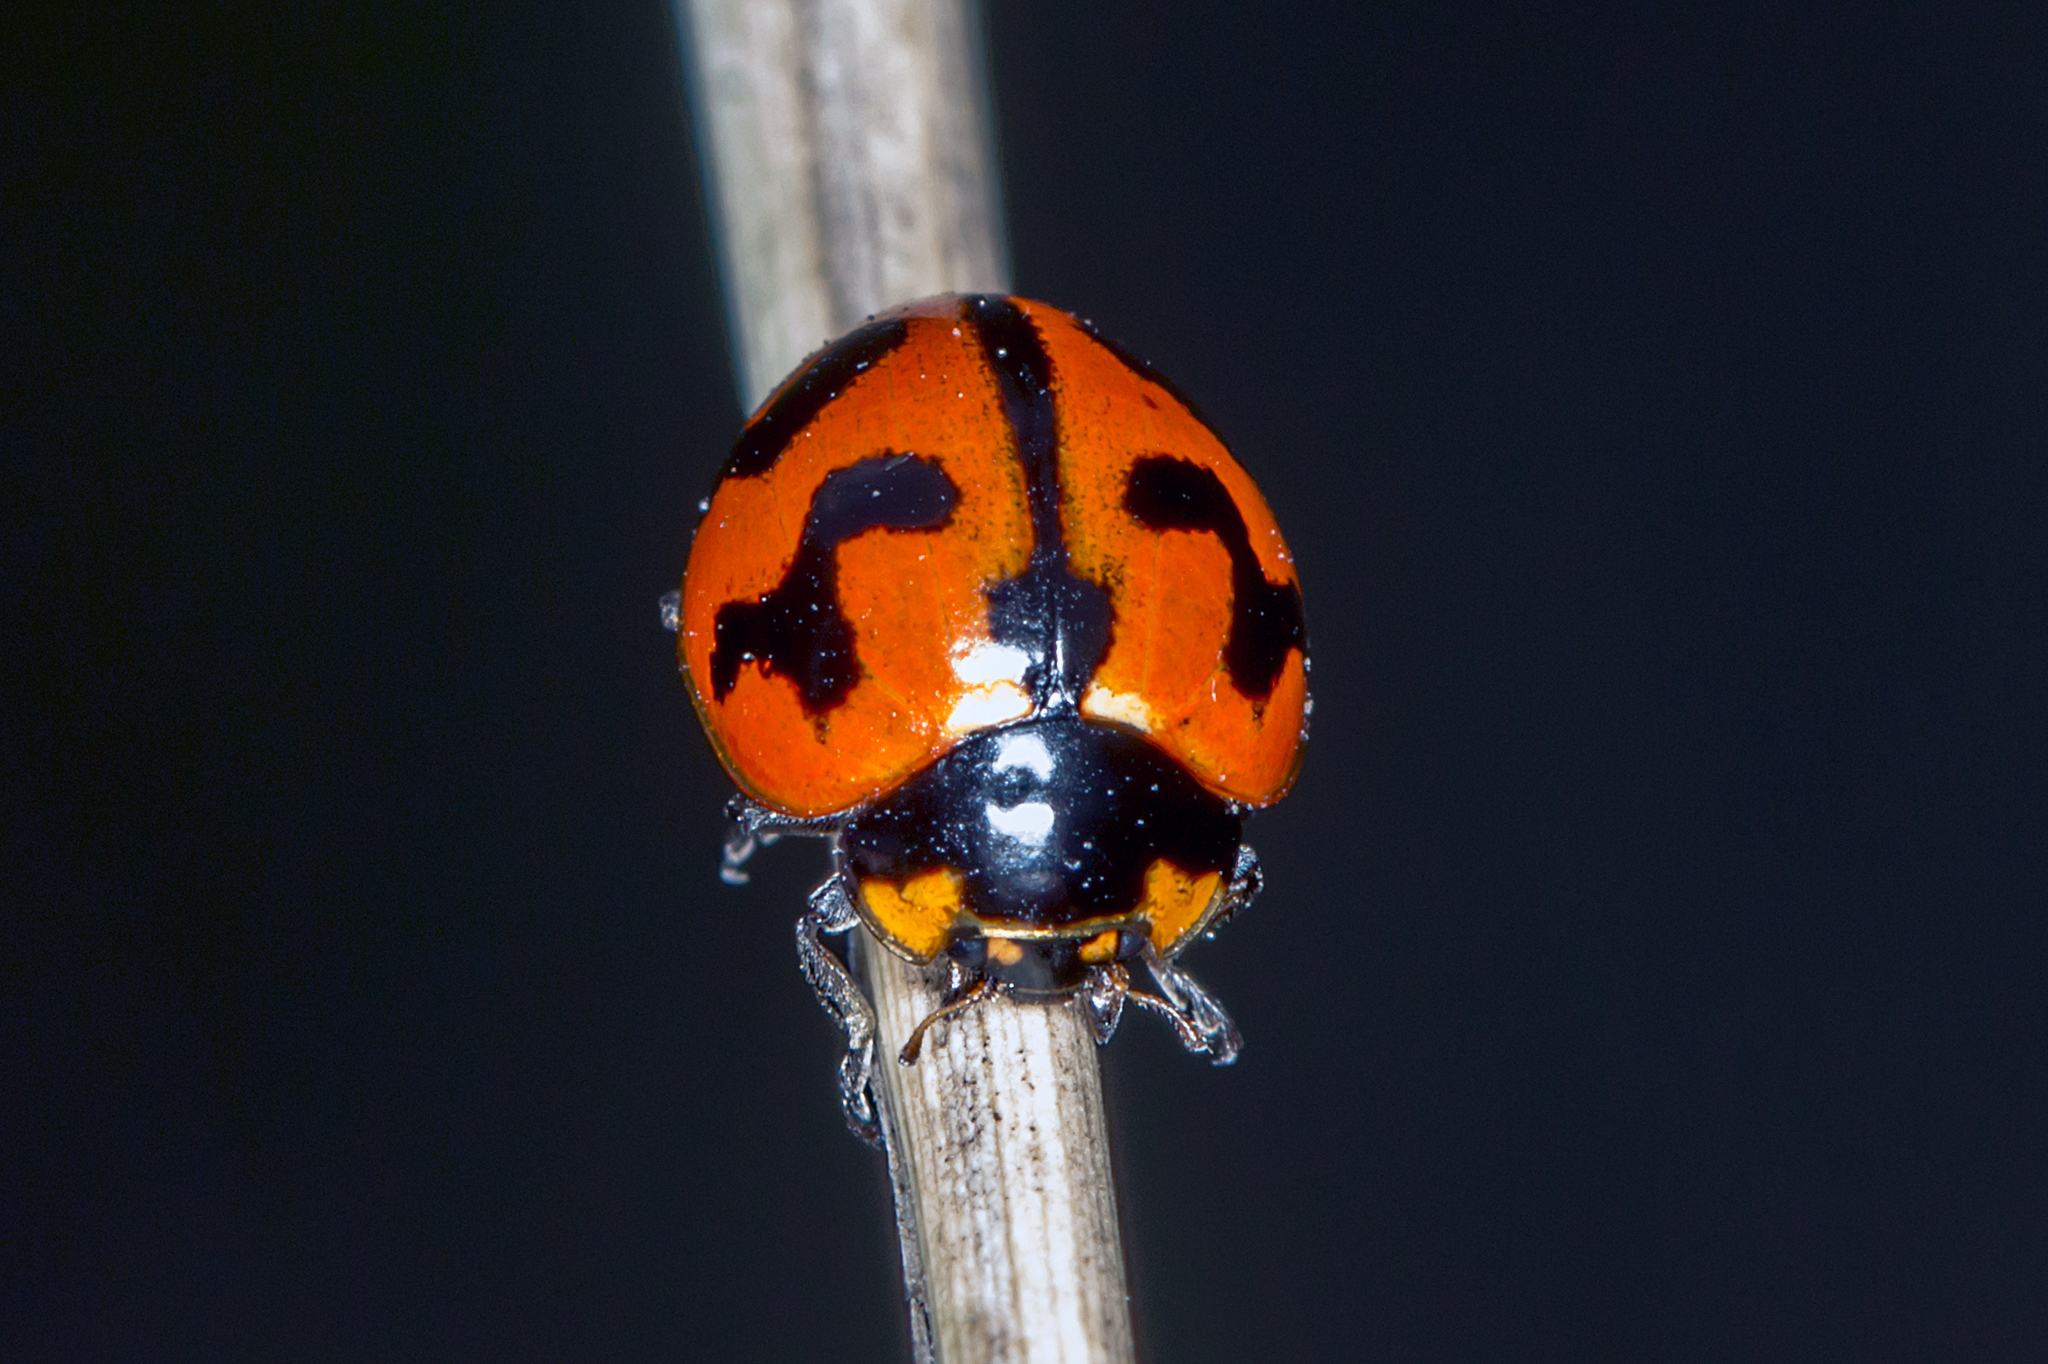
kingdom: Animalia
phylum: Arthropoda
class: Insecta
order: Coleoptera
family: Coccinellidae
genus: Coccinella
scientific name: Coccinella transversalis
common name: Transverse lady beetle
